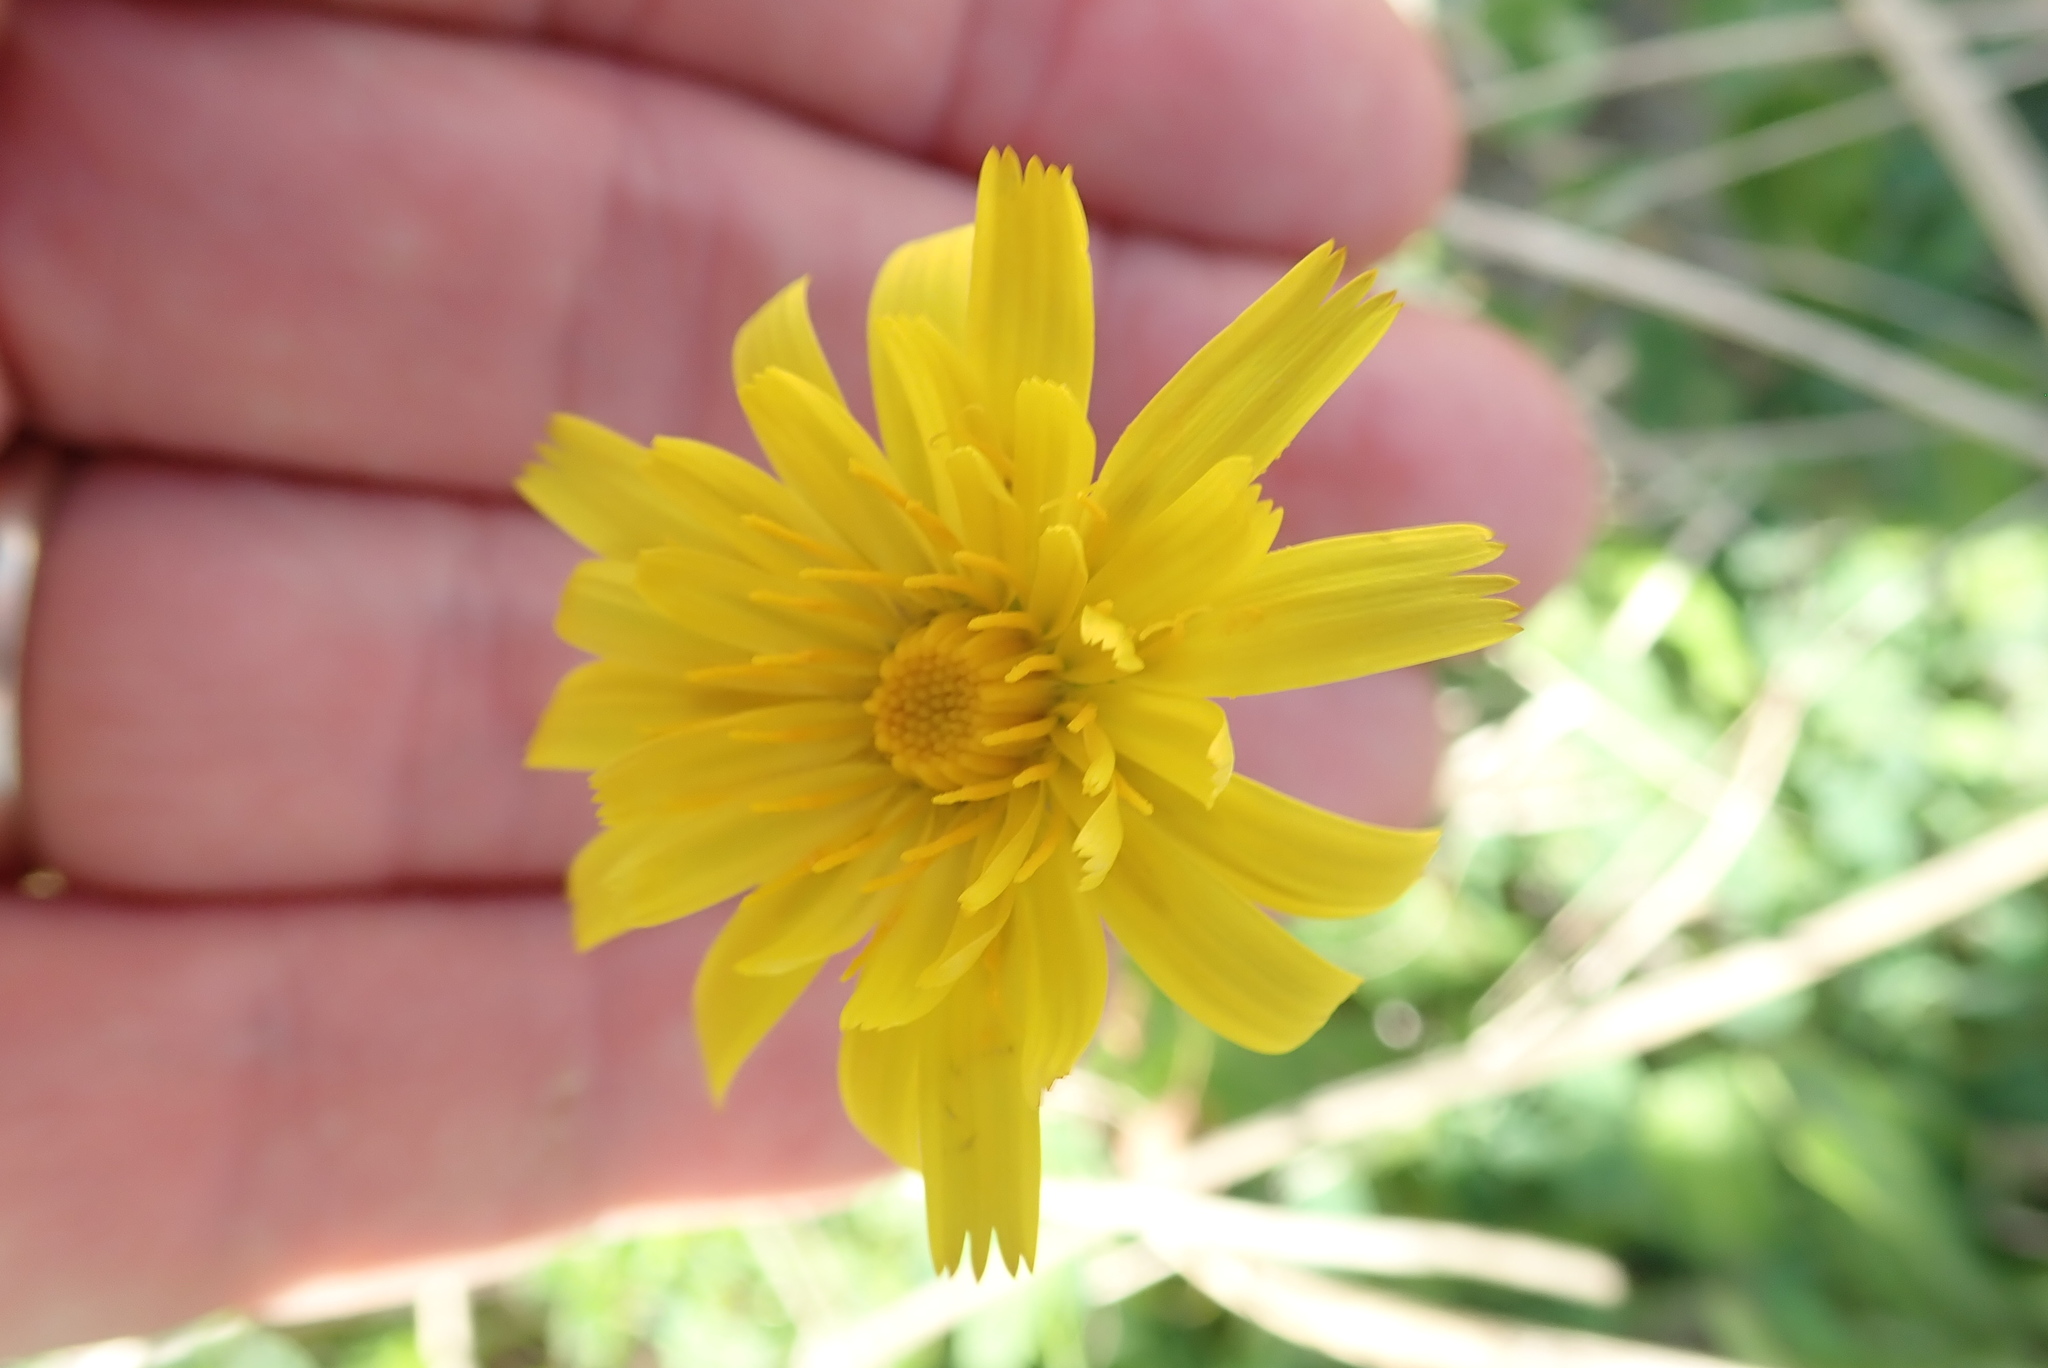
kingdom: Plantae
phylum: Tracheophyta
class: Magnoliopsida
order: Asterales
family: Asteraceae
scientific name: Asteraceae
